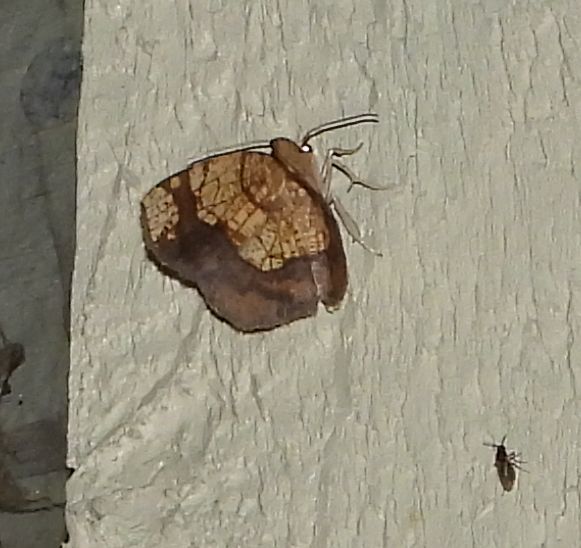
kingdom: Animalia
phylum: Arthropoda
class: Insecta
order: Lepidoptera
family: Geometridae
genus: Nematocampa
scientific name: Nematocampa resistaria
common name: Horned spanworm moth
